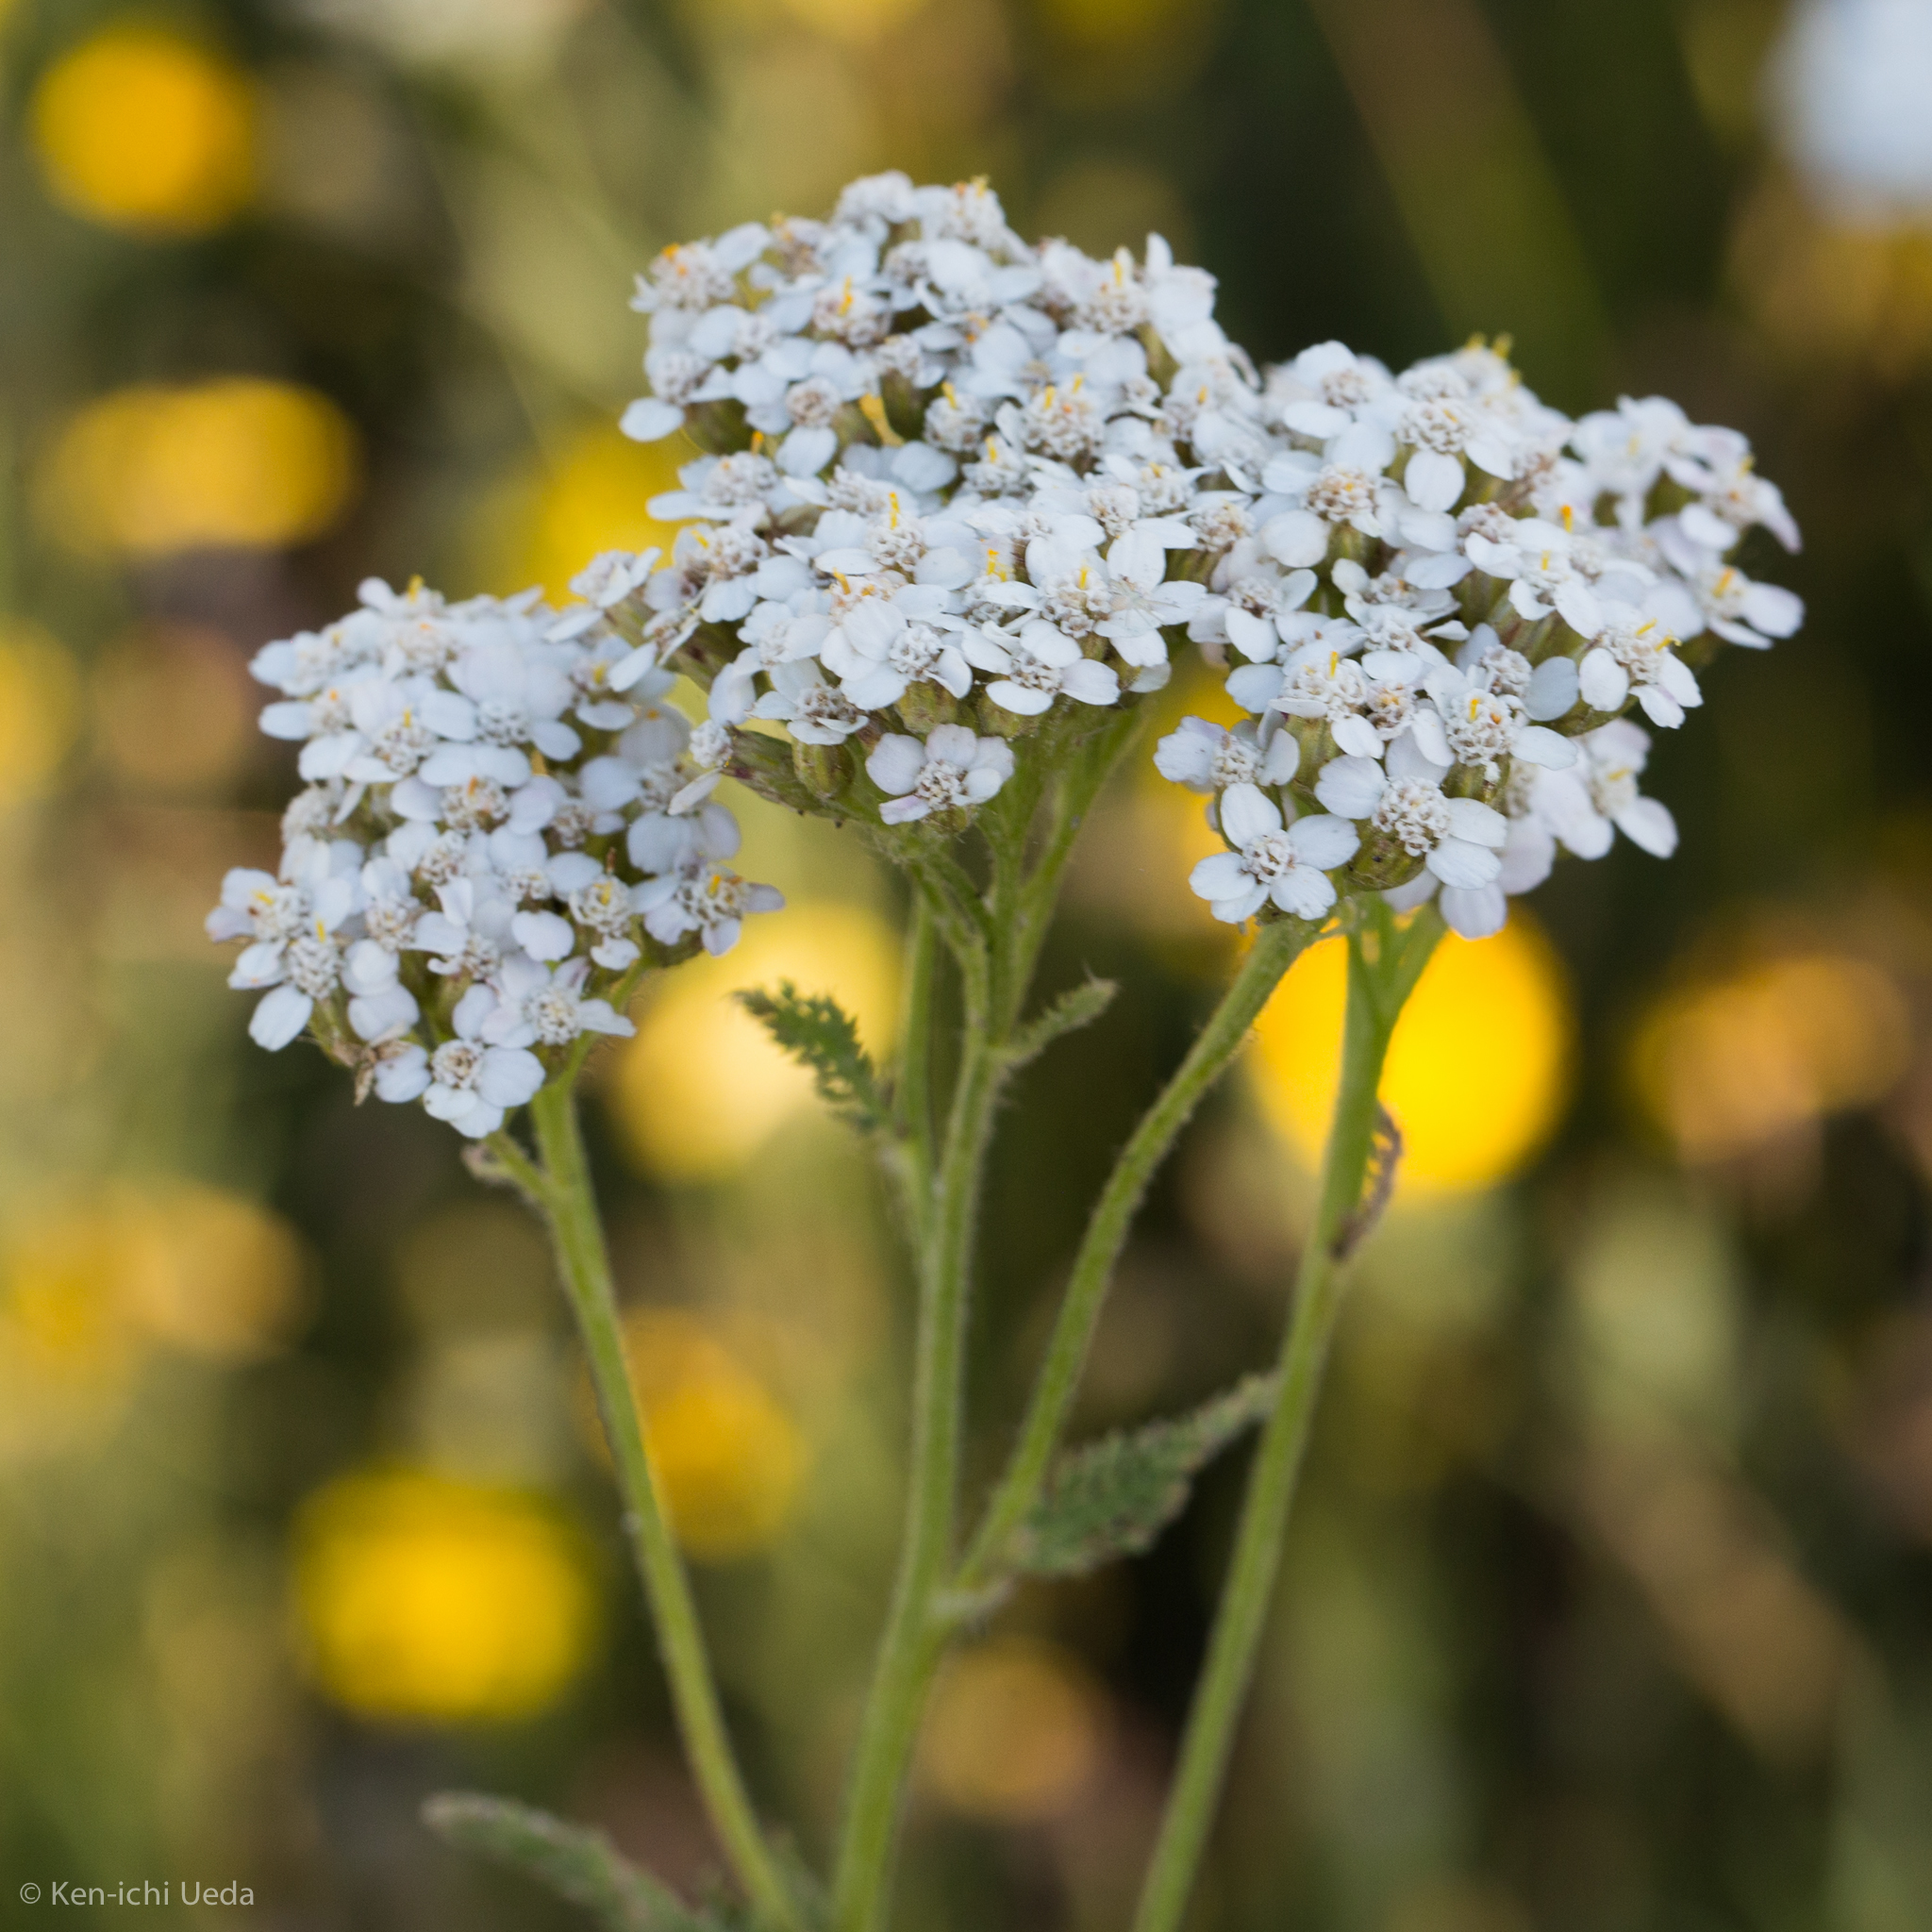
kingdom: Plantae
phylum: Tracheophyta
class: Magnoliopsida
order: Asterales
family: Asteraceae
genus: Achillea
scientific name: Achillea millefolium
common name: Yarrow
